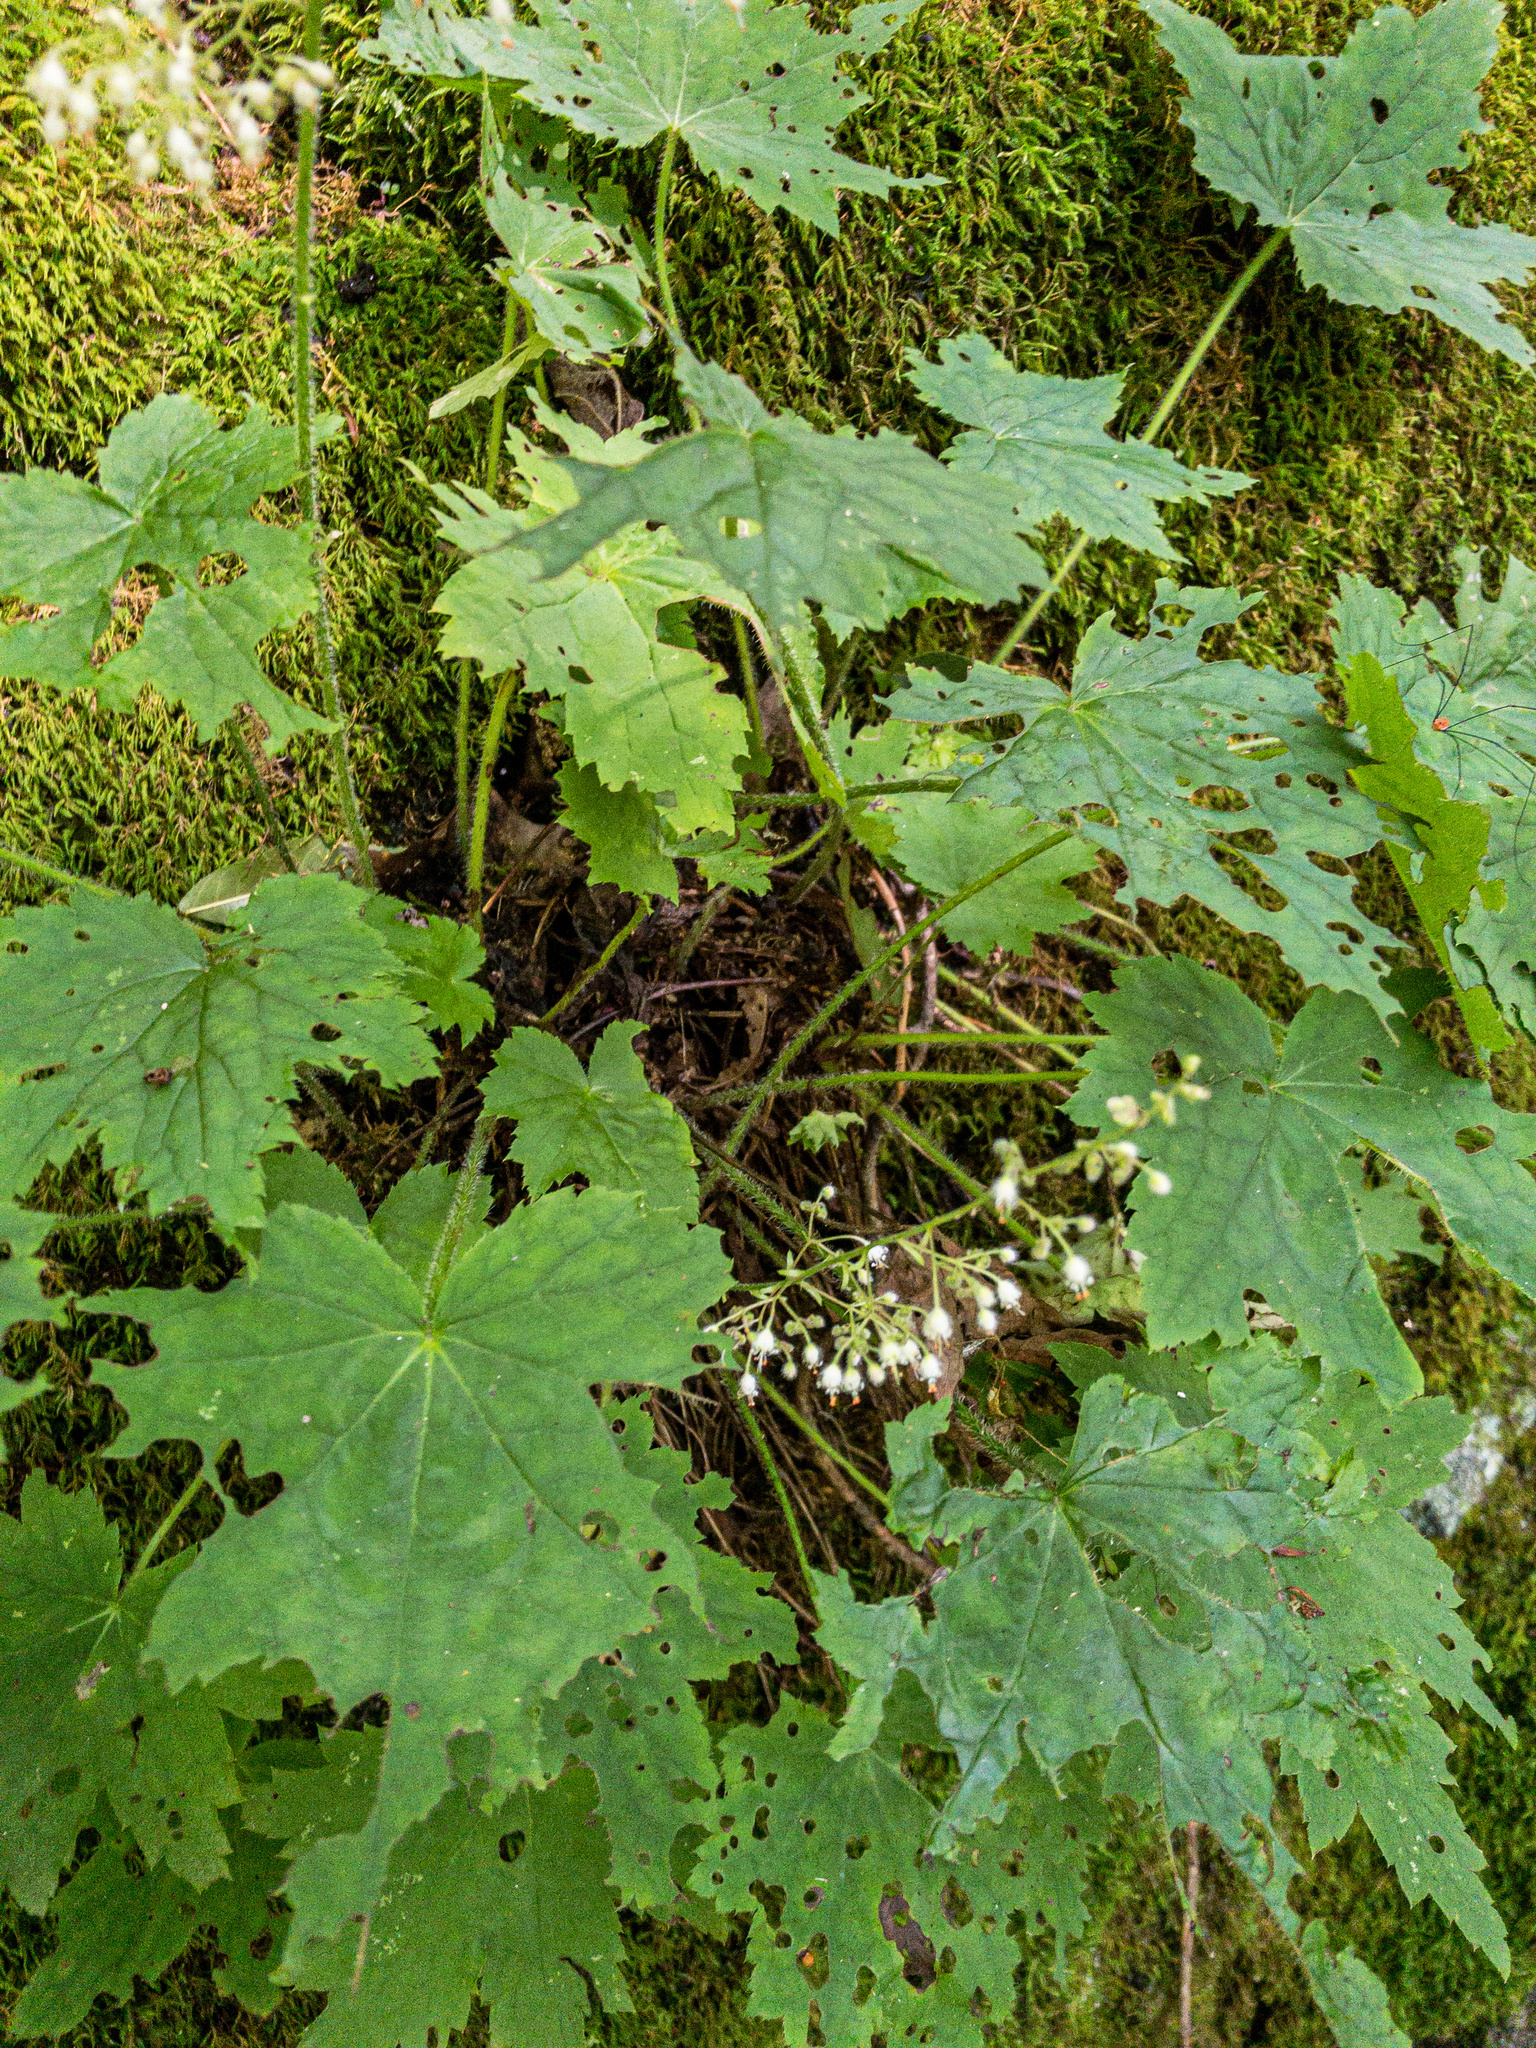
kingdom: Plantae
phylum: Tracheophyta
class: Magnoliopsida
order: Saxifragales
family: Saxifragaceae
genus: Heuchera
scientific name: Heuchera villosa
